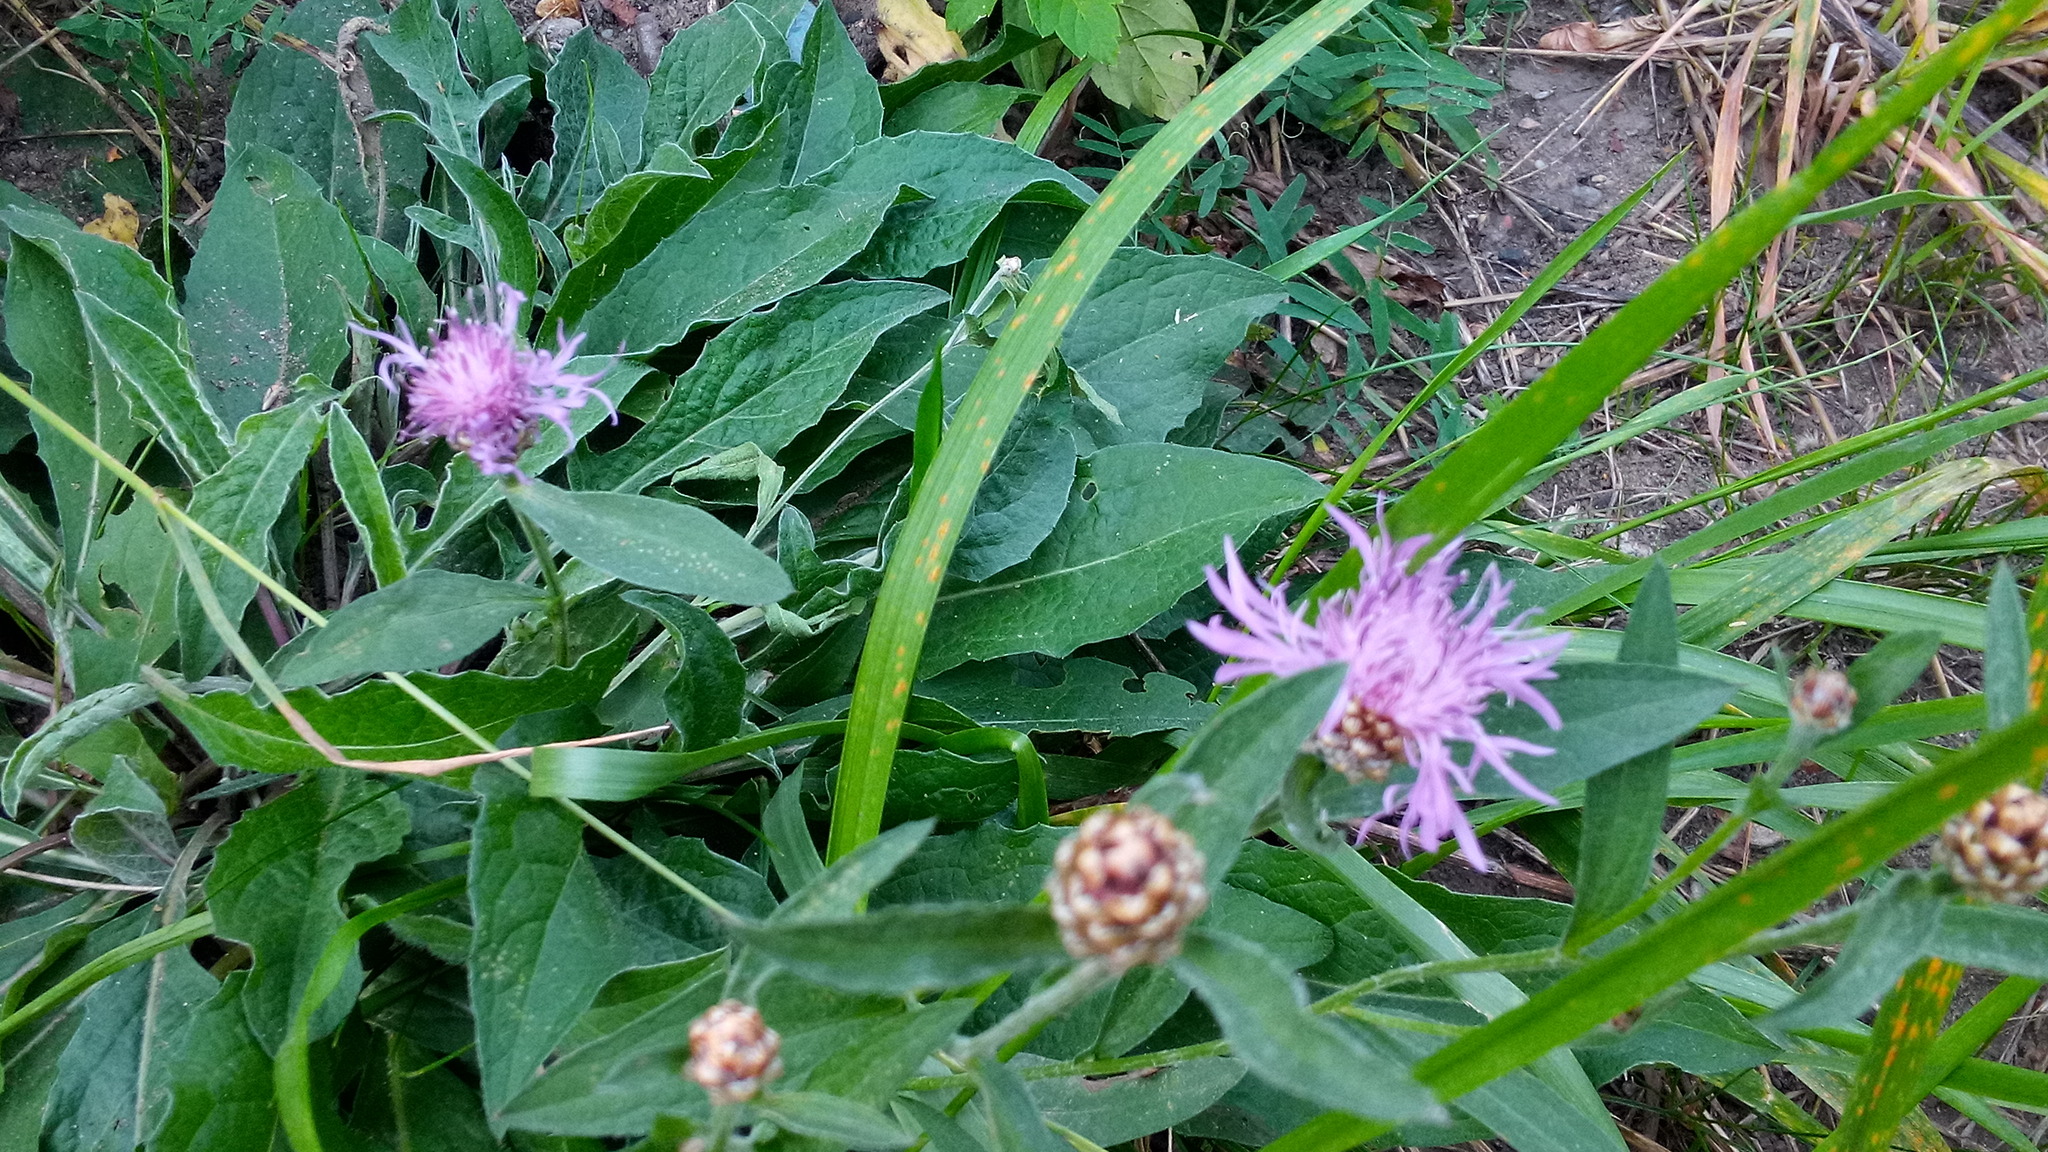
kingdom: Plantae
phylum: Tracheophyta
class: Magnoliopsida
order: Asterales
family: Asteraceae
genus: Centaurea
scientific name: Centaurea jacea
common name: Brown knapweed
